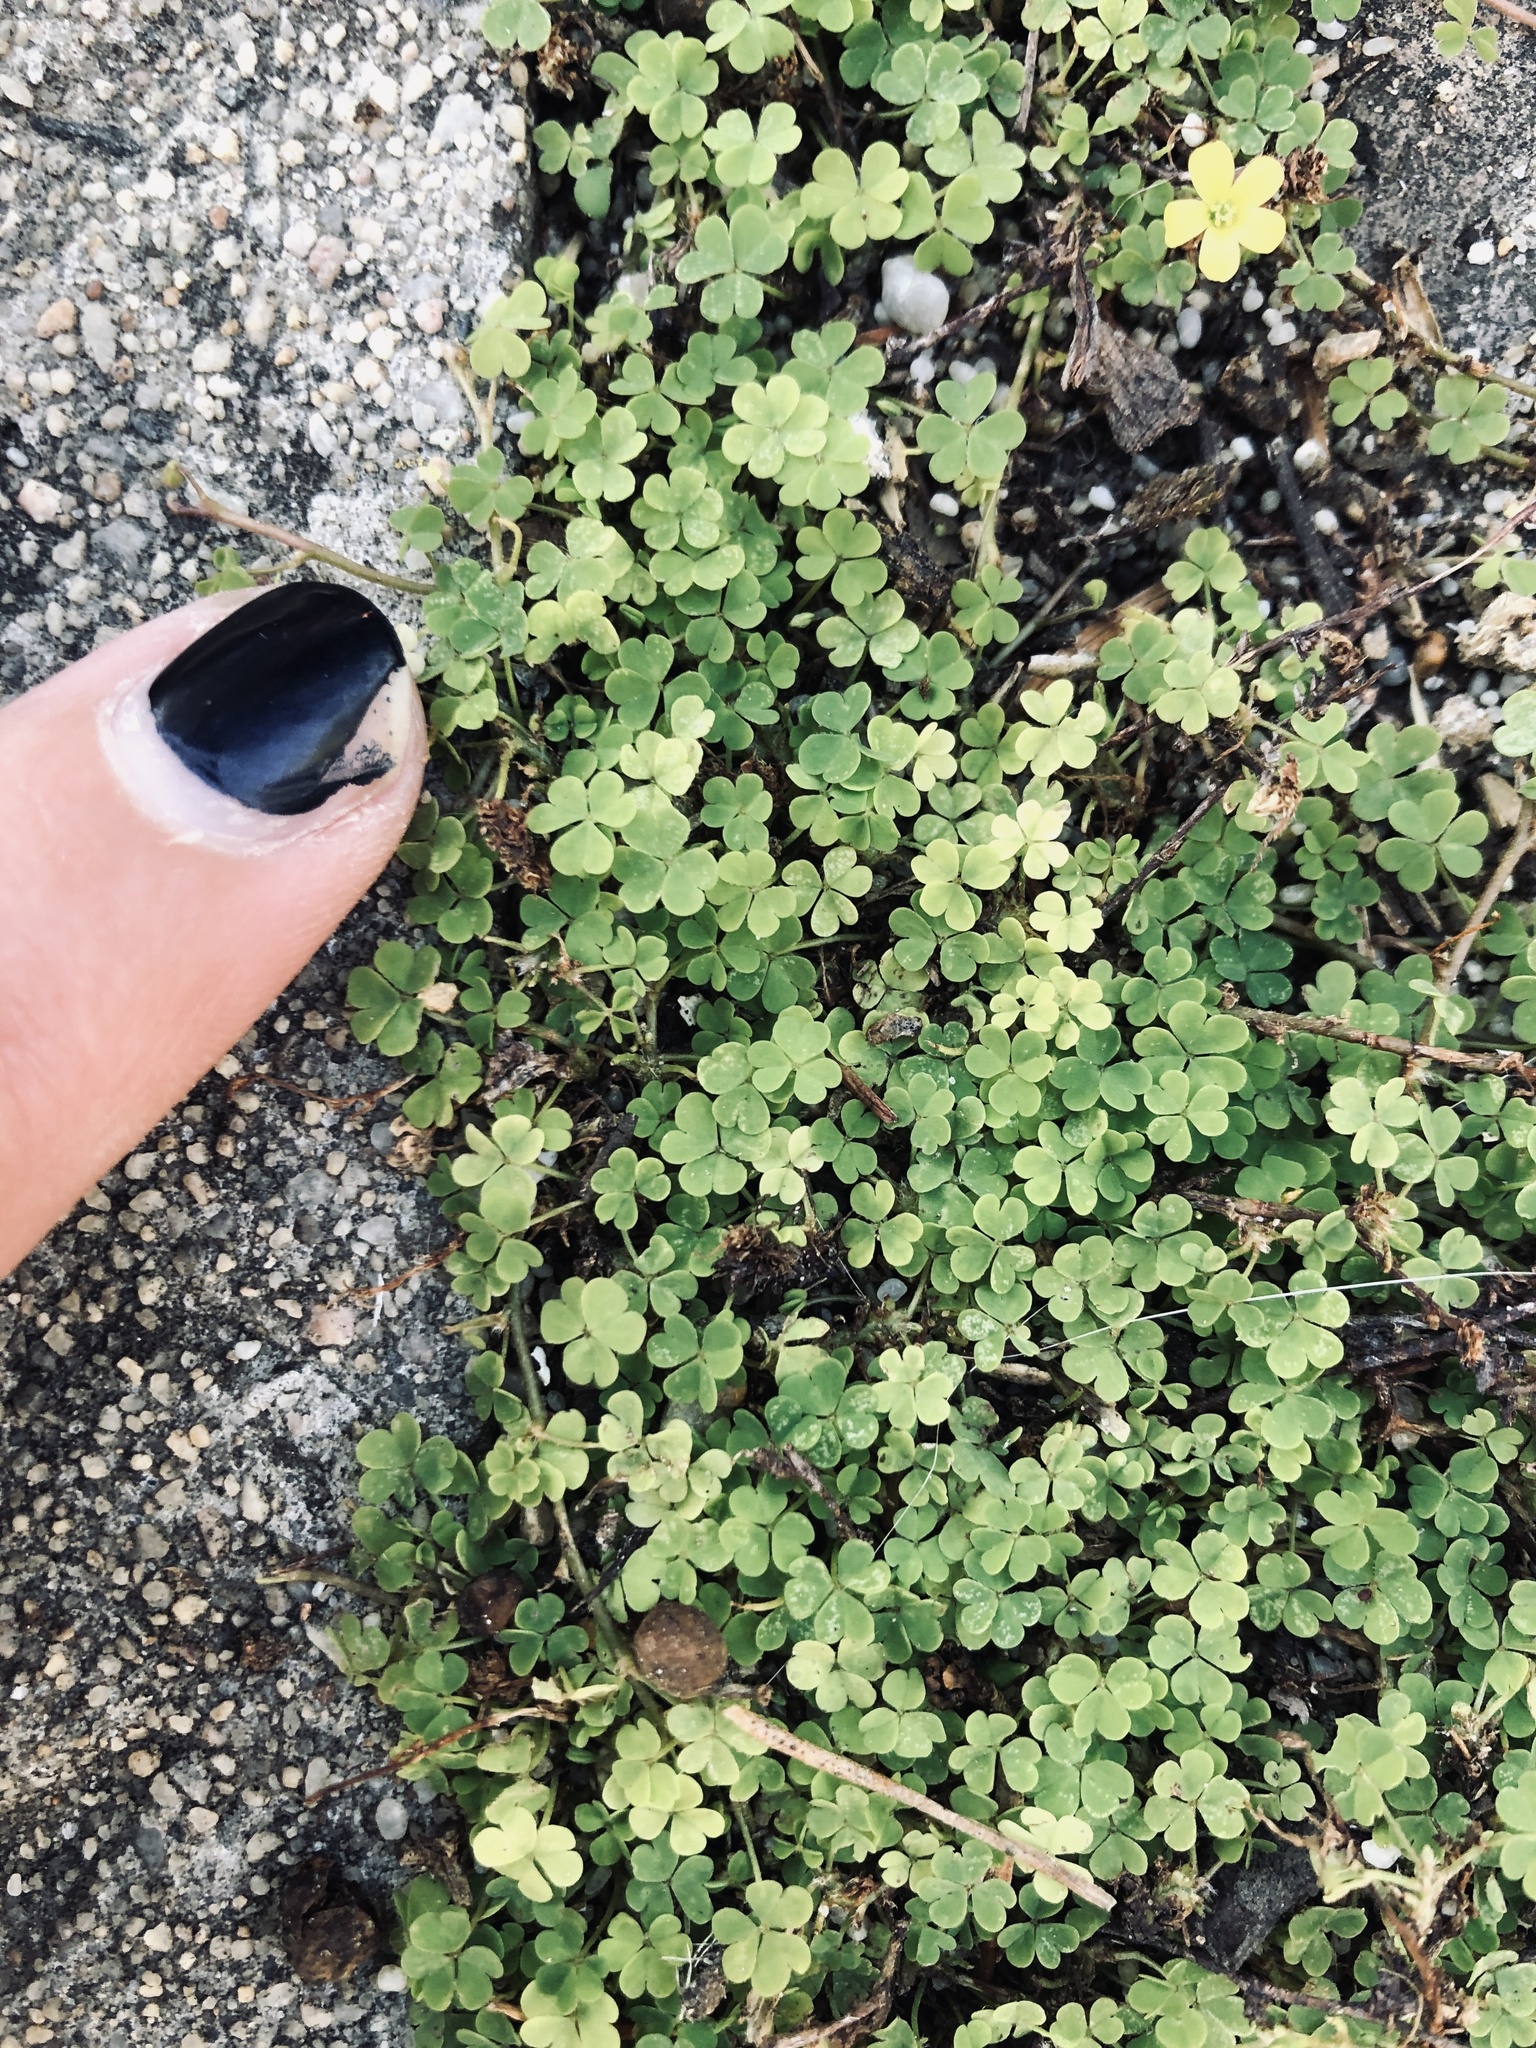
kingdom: Plantae
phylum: Tracheophyta
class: Magnoliopsida
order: Oxalidales
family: Oxalidaceae
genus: Oxalis
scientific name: Oxalis corniculata
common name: Procumbent yellow-sorrel
